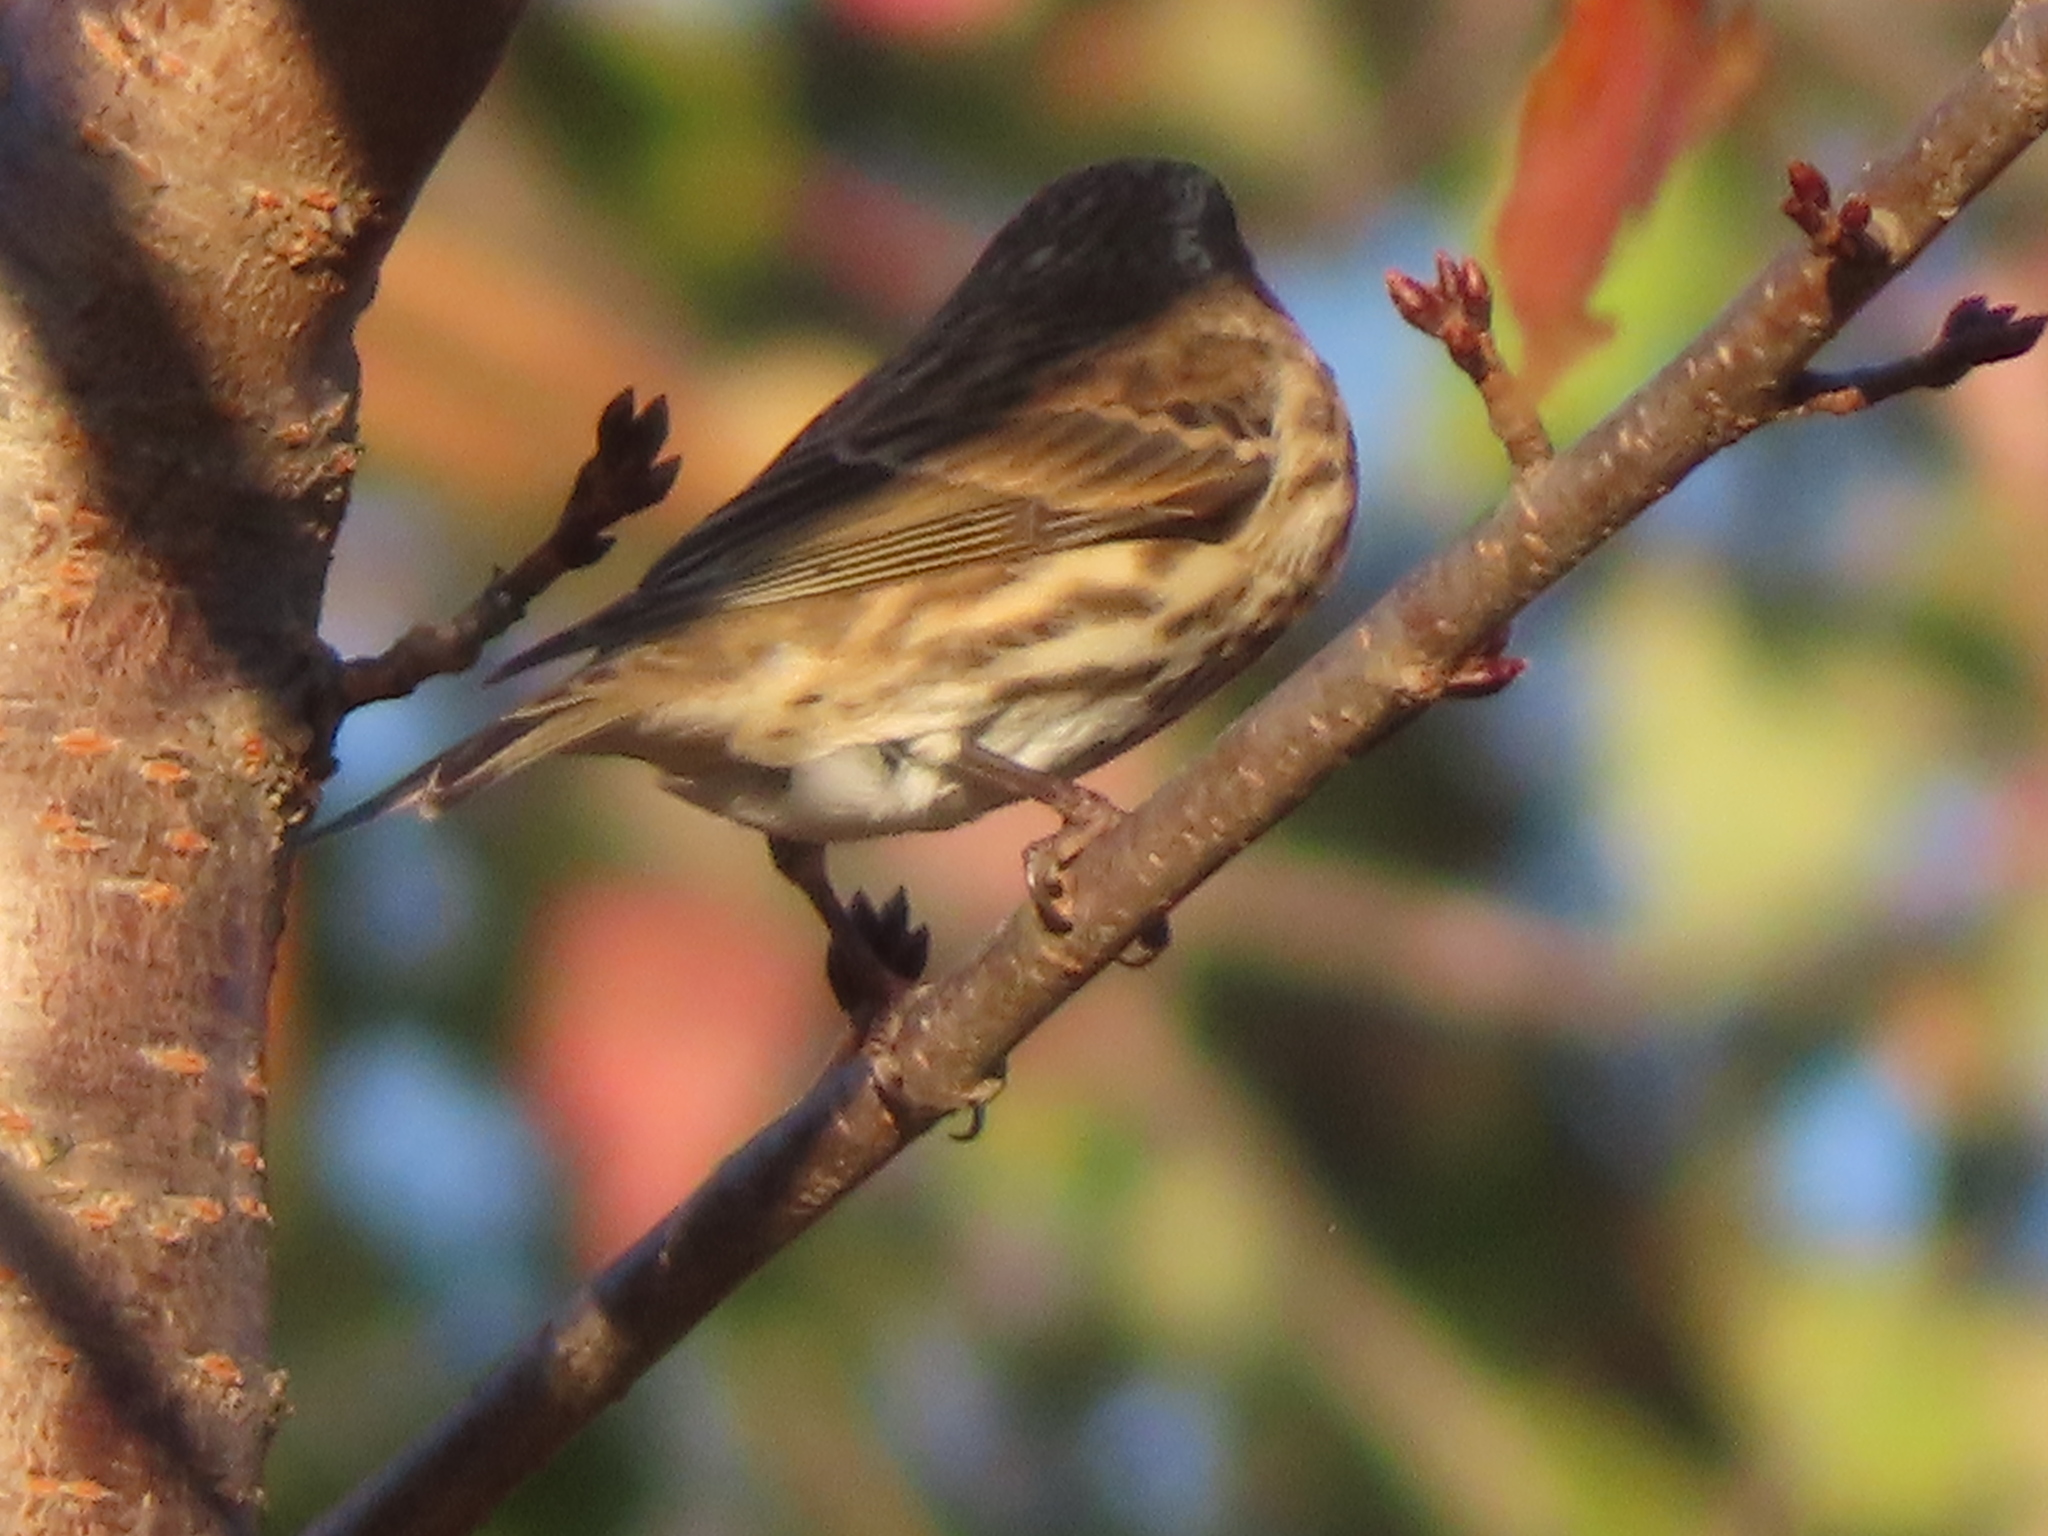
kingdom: Animalia
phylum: Chordata
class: Aves
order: Passeriformes
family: Fringillidae
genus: Haemorhous
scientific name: Haemorhous purpureus
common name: Purple finch
